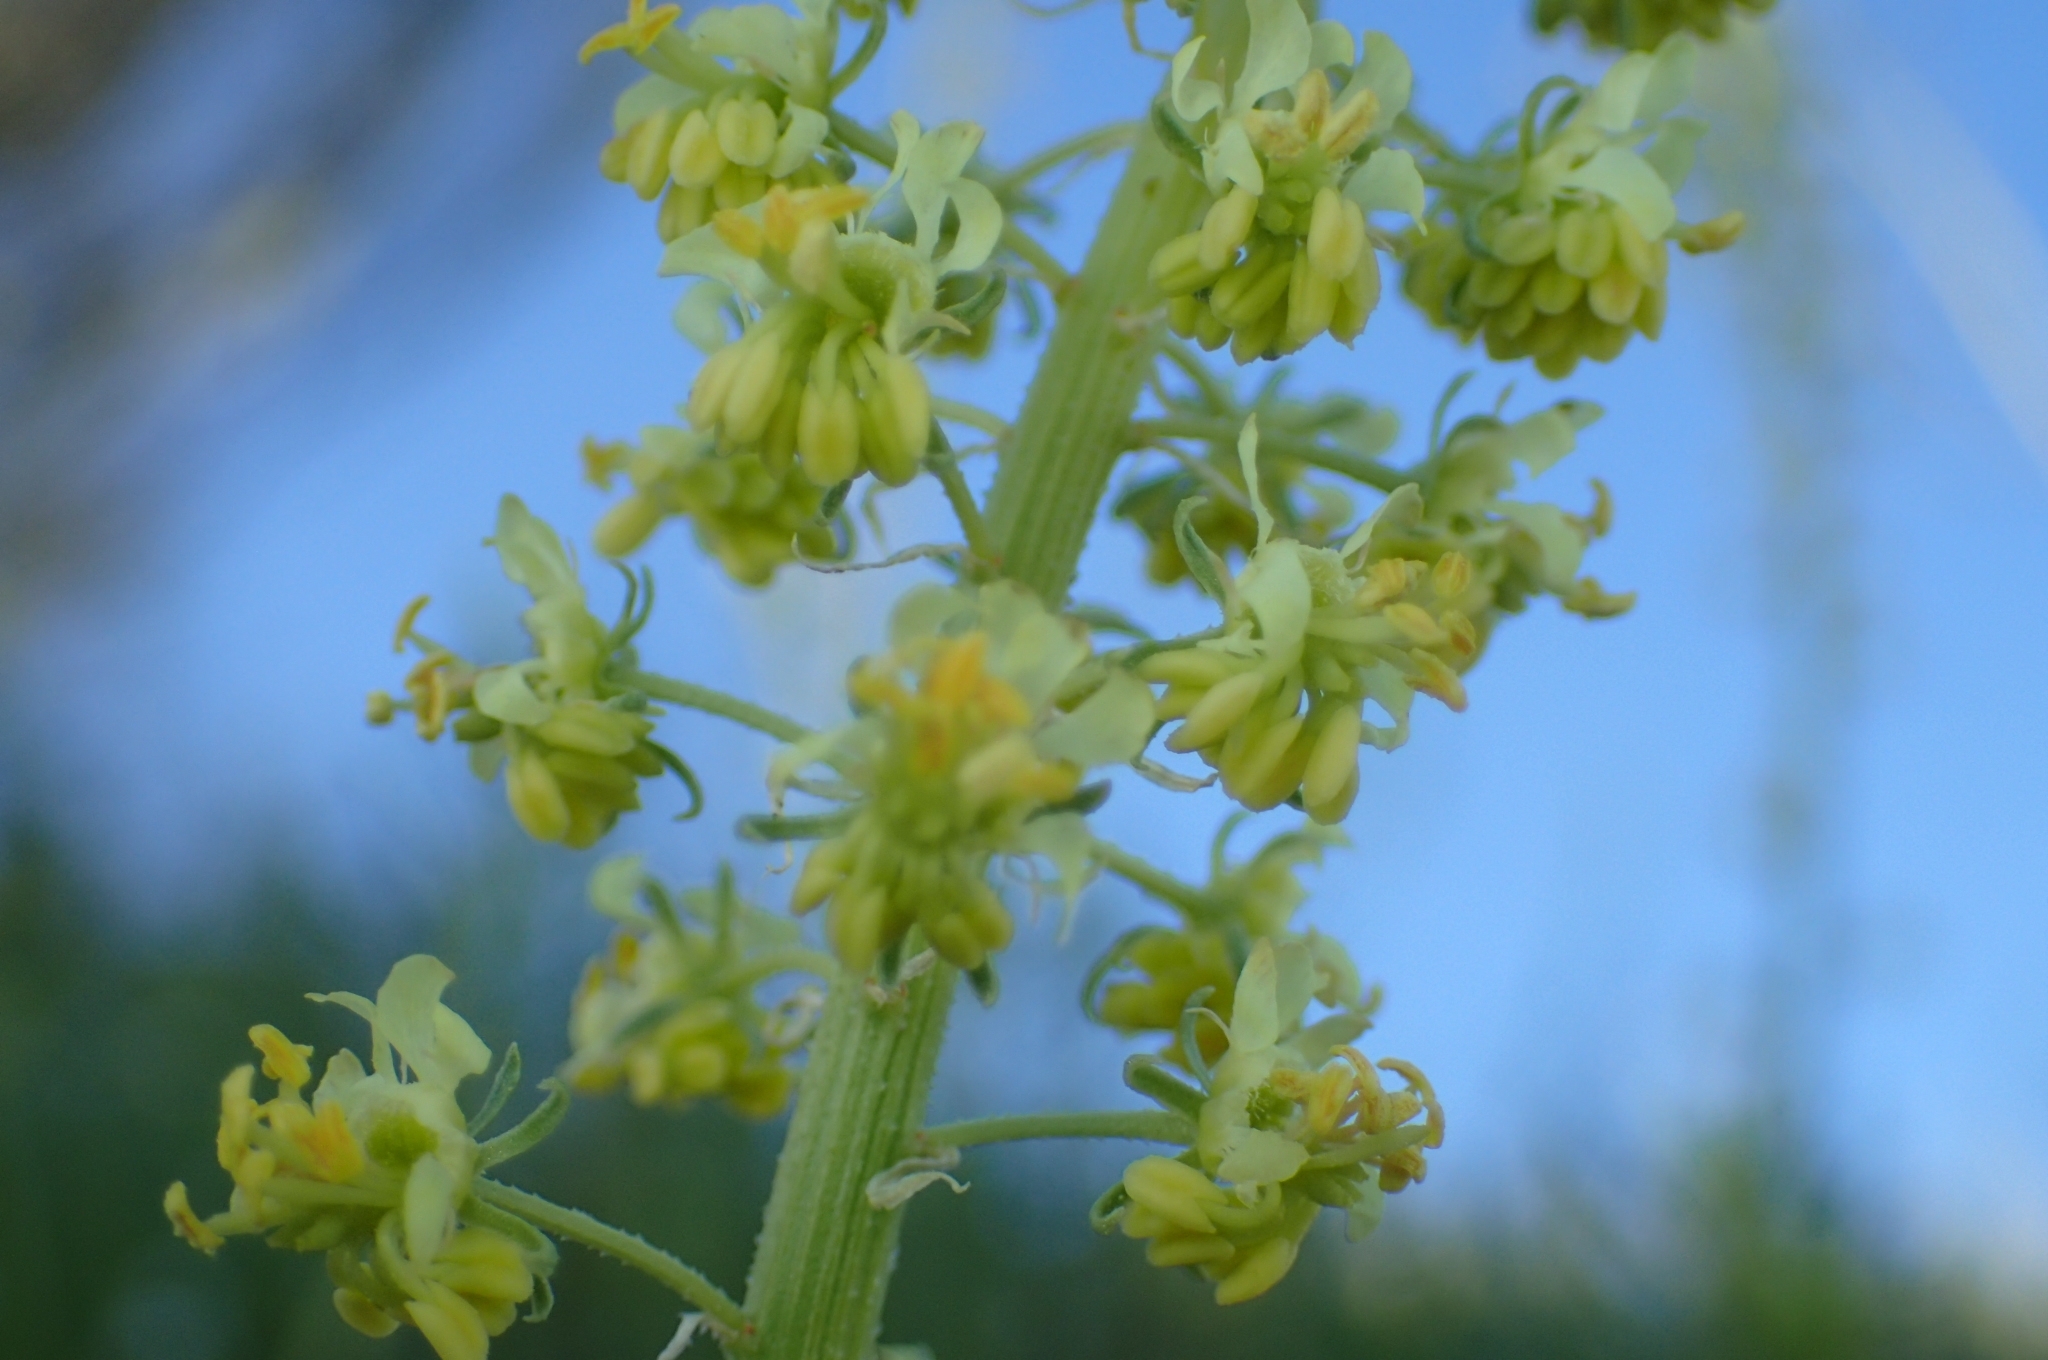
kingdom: Plantae
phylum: Tracheophyta
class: Magnoliopsida
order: Brassicales
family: Resedaceae
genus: Reseda
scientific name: Reseda lutea
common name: Wild mignonette
